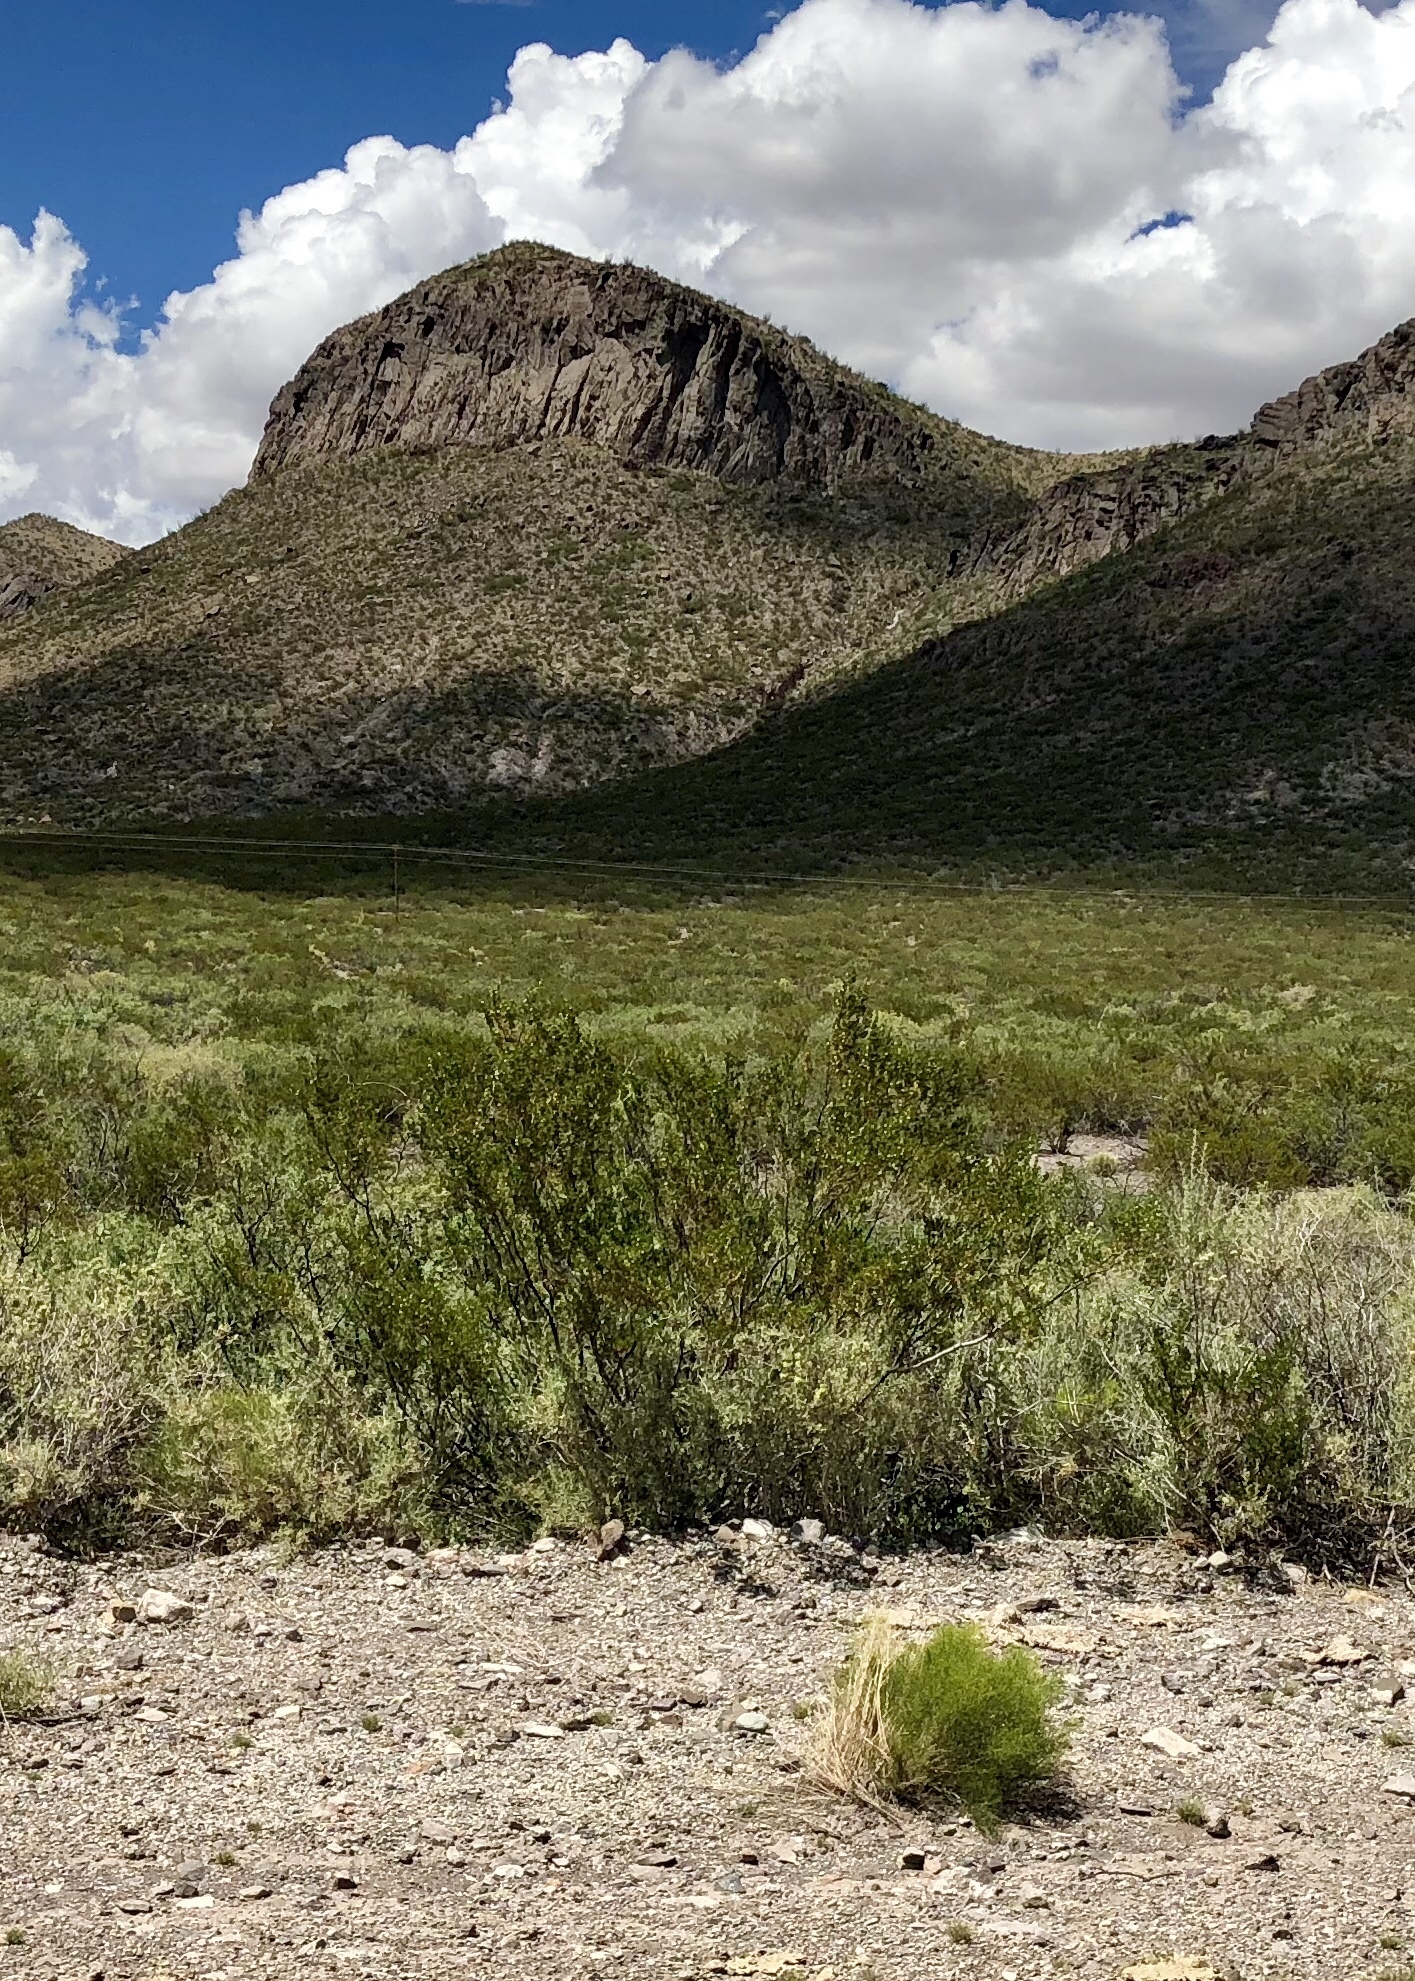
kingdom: Plantae
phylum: Tracheophyta
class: Magnoliopsida
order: Zygophyllales
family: Zygophyllaceae
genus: Larrea
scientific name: Larrea tridentata
